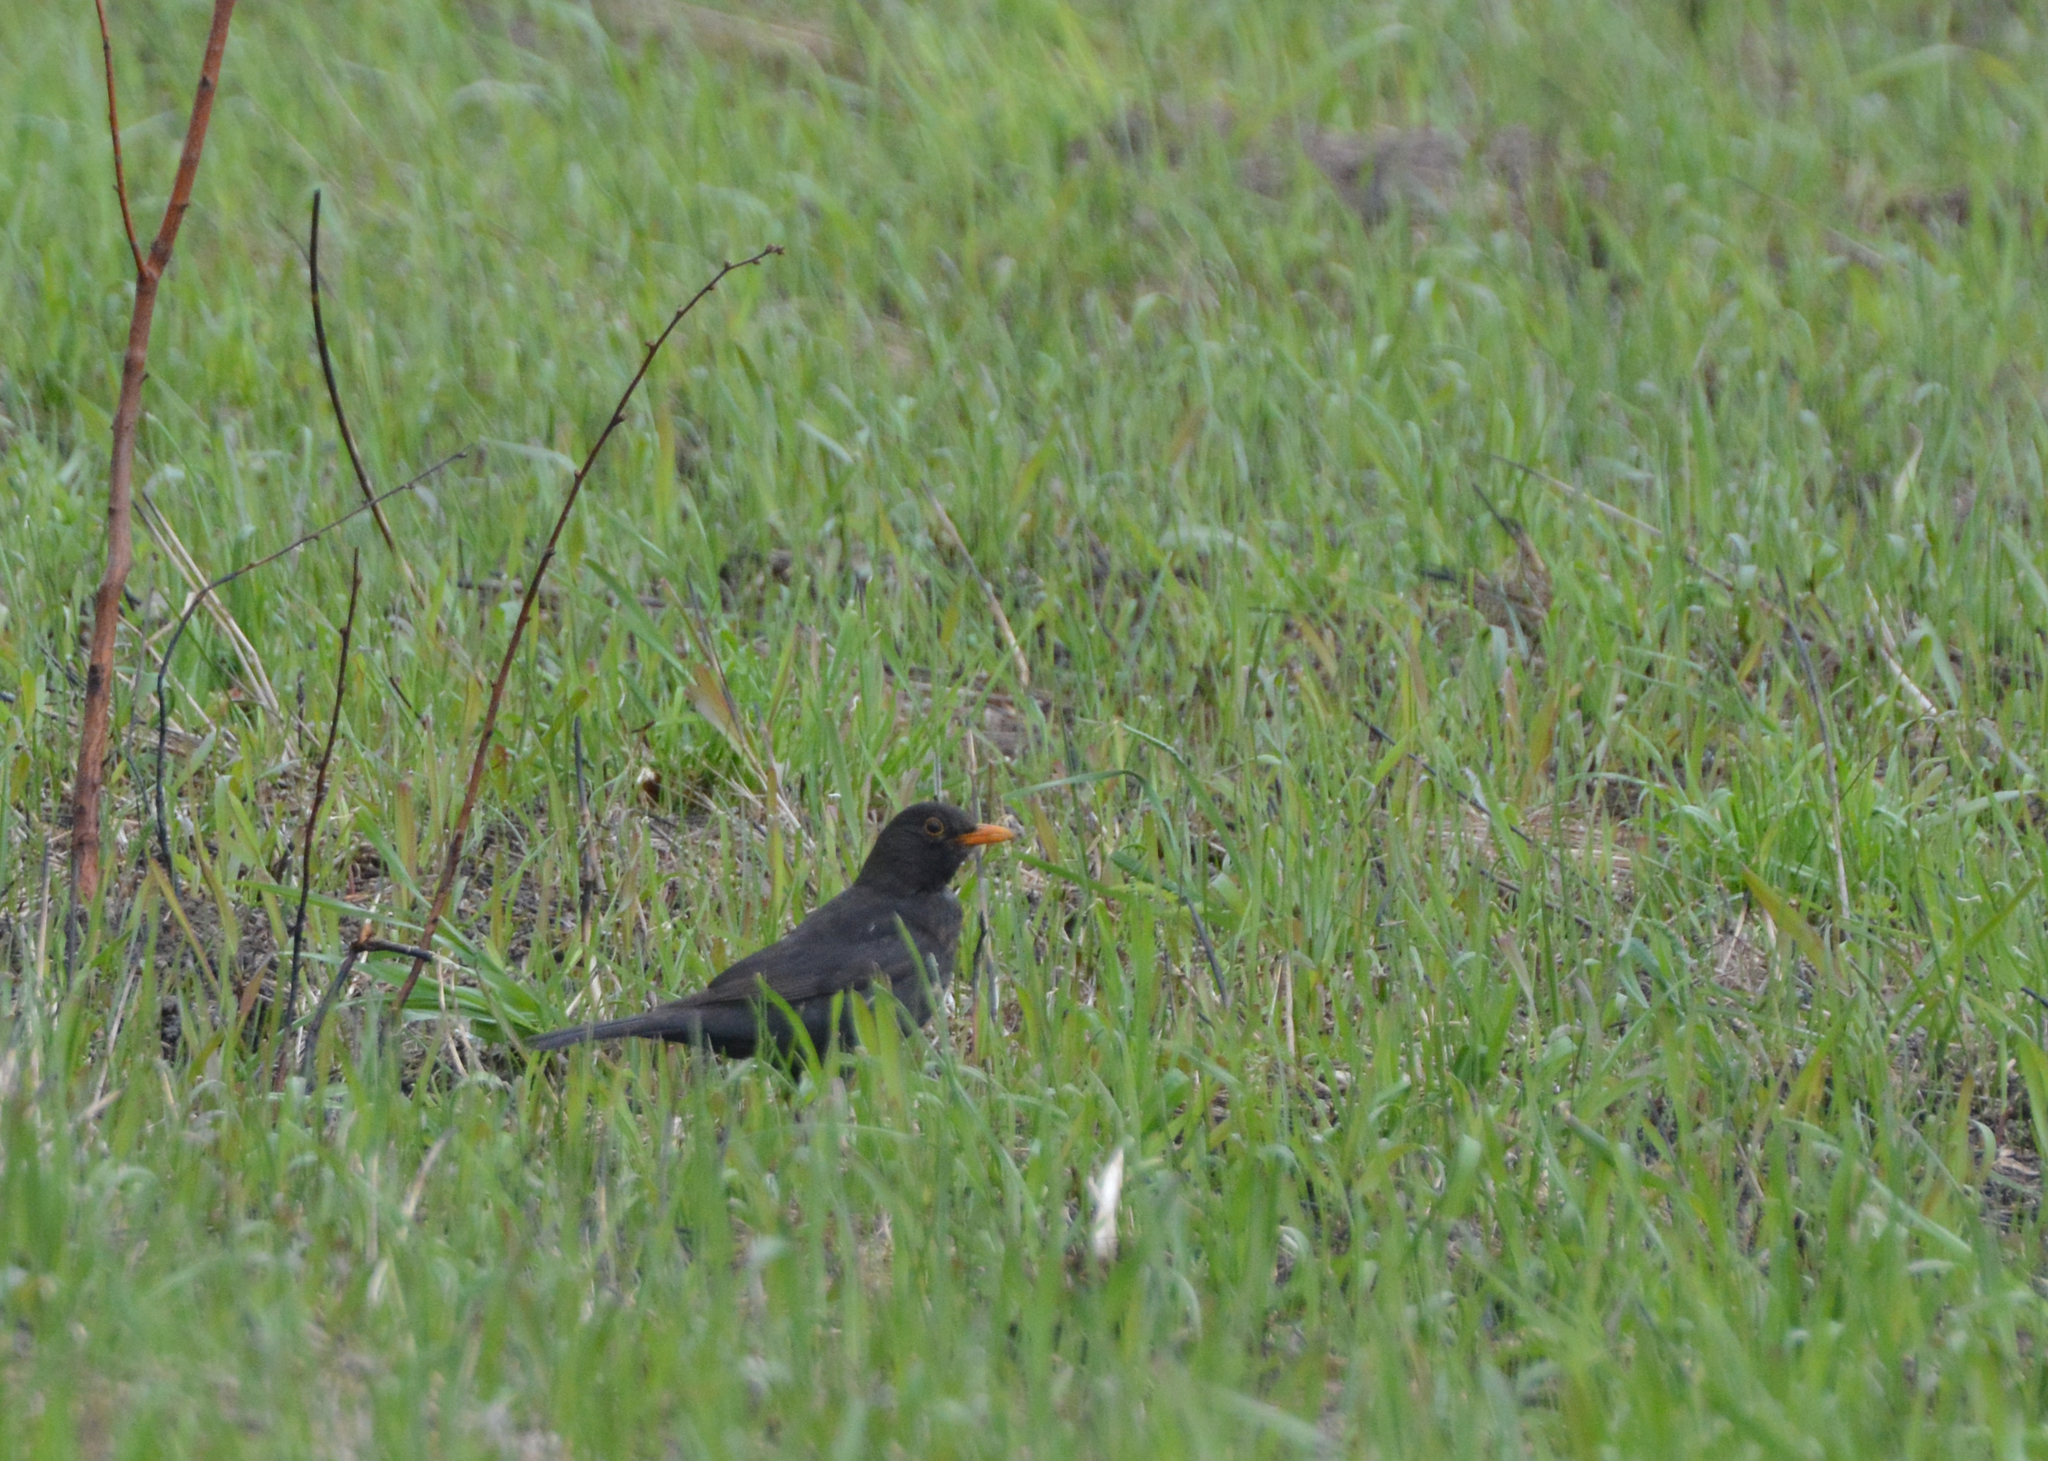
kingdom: Animalia
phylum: Chordata
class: Aves
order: Passeriformes
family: Turdidae
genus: Turdus
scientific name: Turdus merula
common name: Common blackbird
